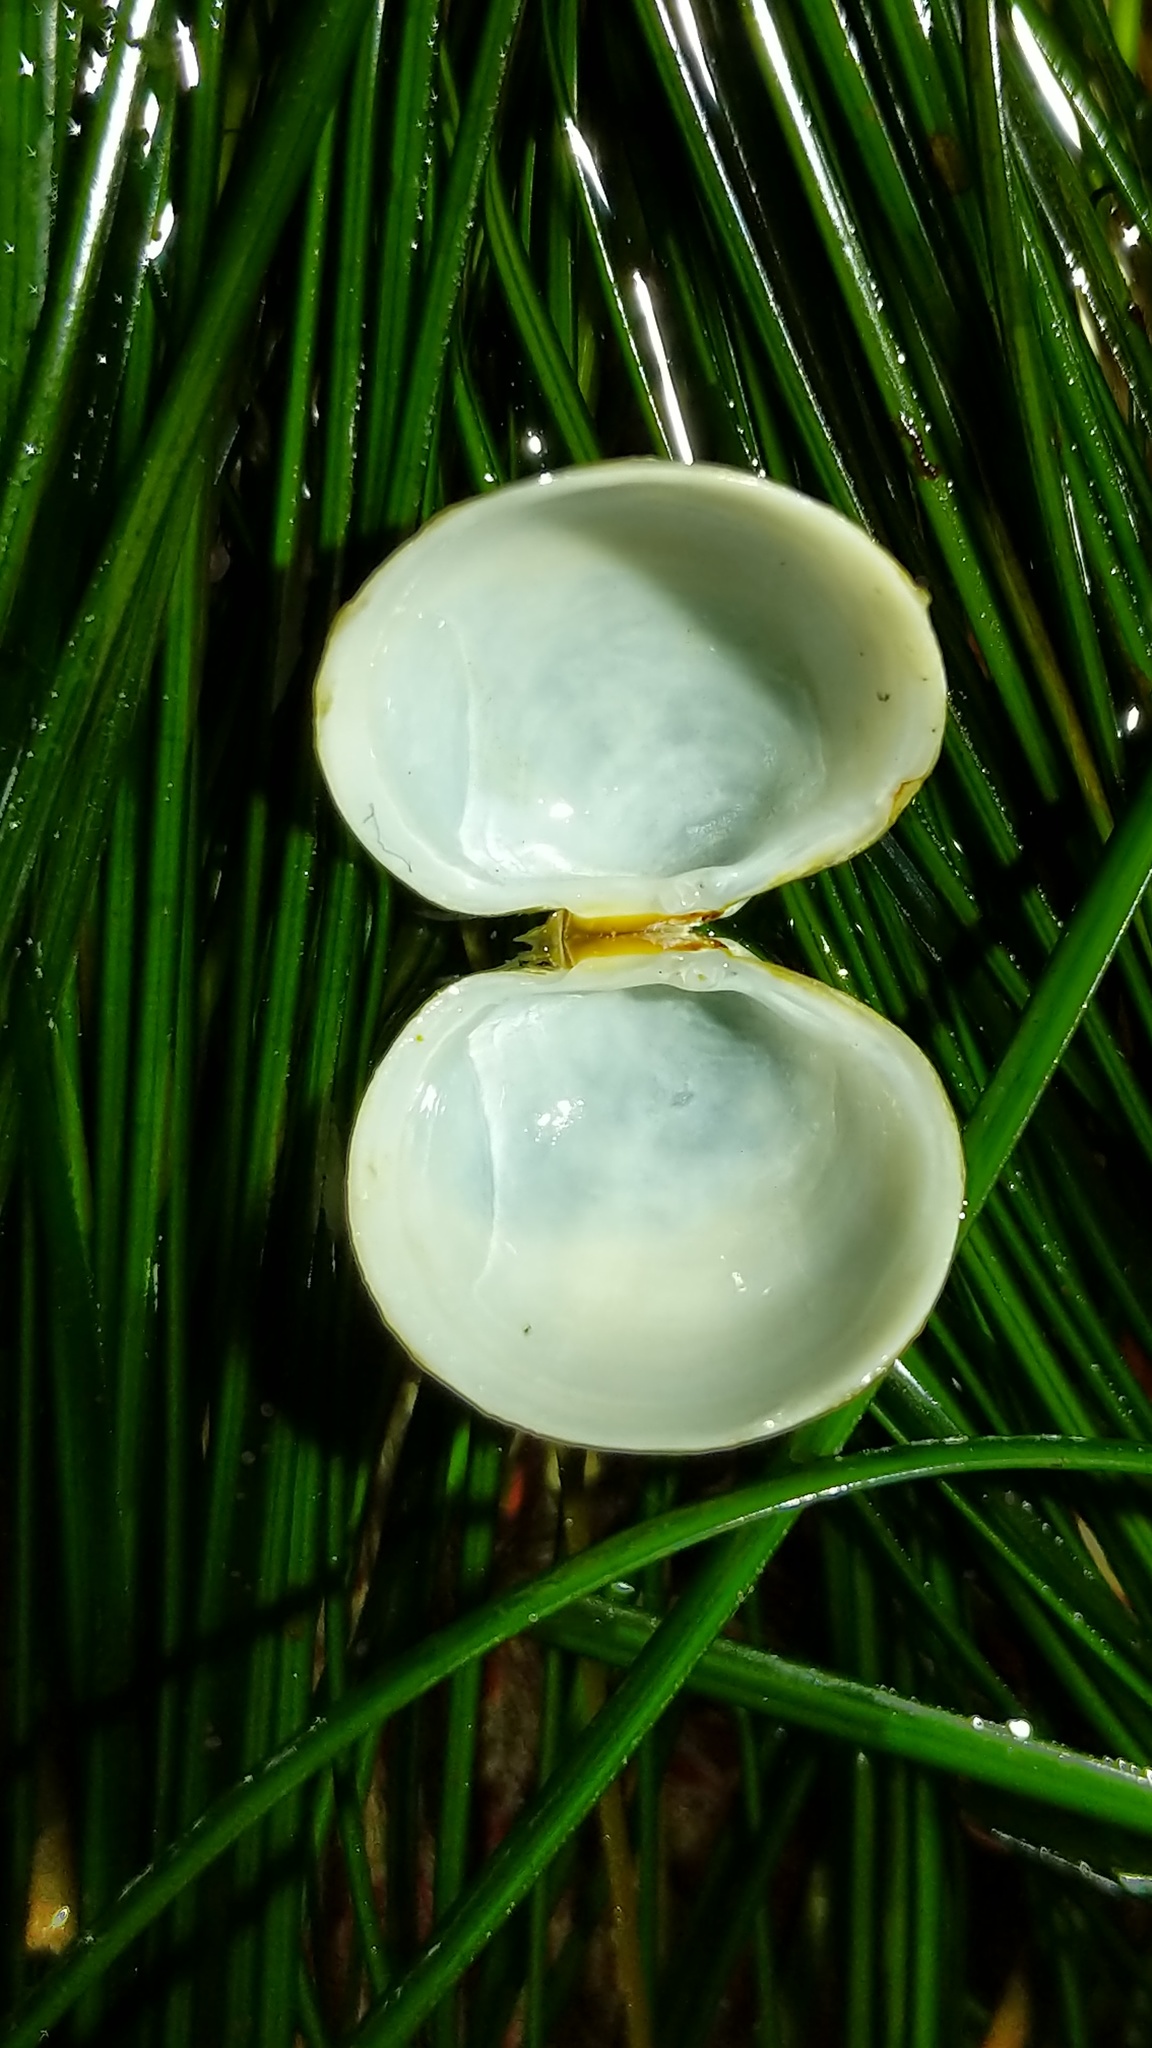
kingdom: Animalia
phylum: Mollusca
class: Bivalvia
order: Venerida
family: Ungulinidae
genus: Zemysina
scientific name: Zemysina orbella
